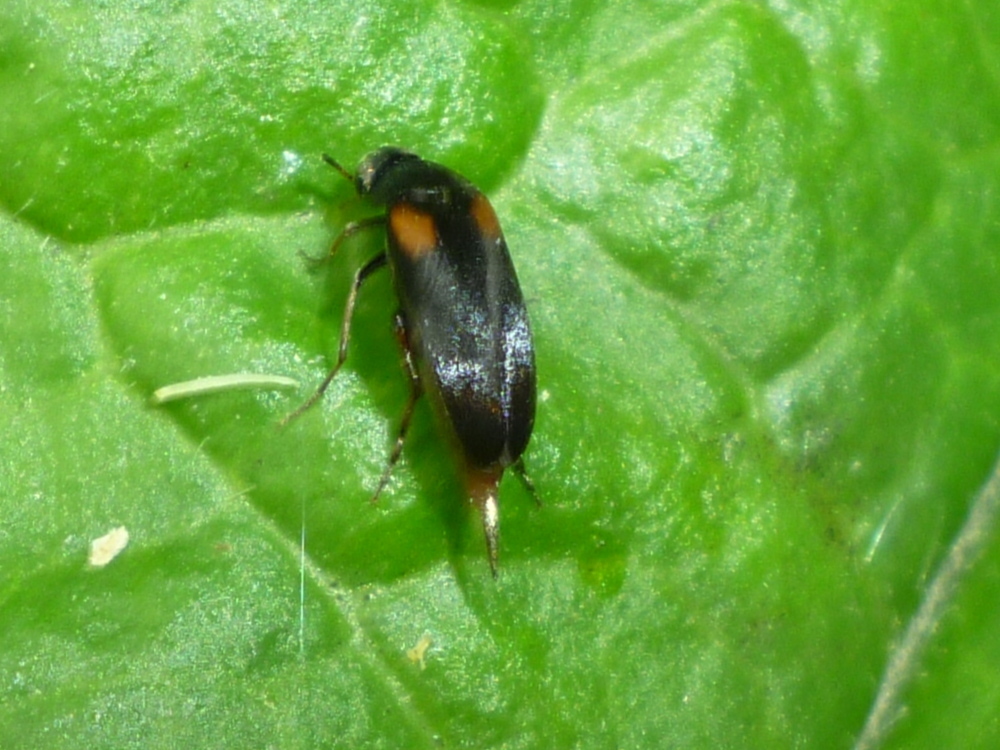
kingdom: Animalia
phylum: Arthropoda
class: Insecta
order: Coleoptera
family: Mordellidae
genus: Mordellochroa
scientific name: Mordellochroa scapularis
